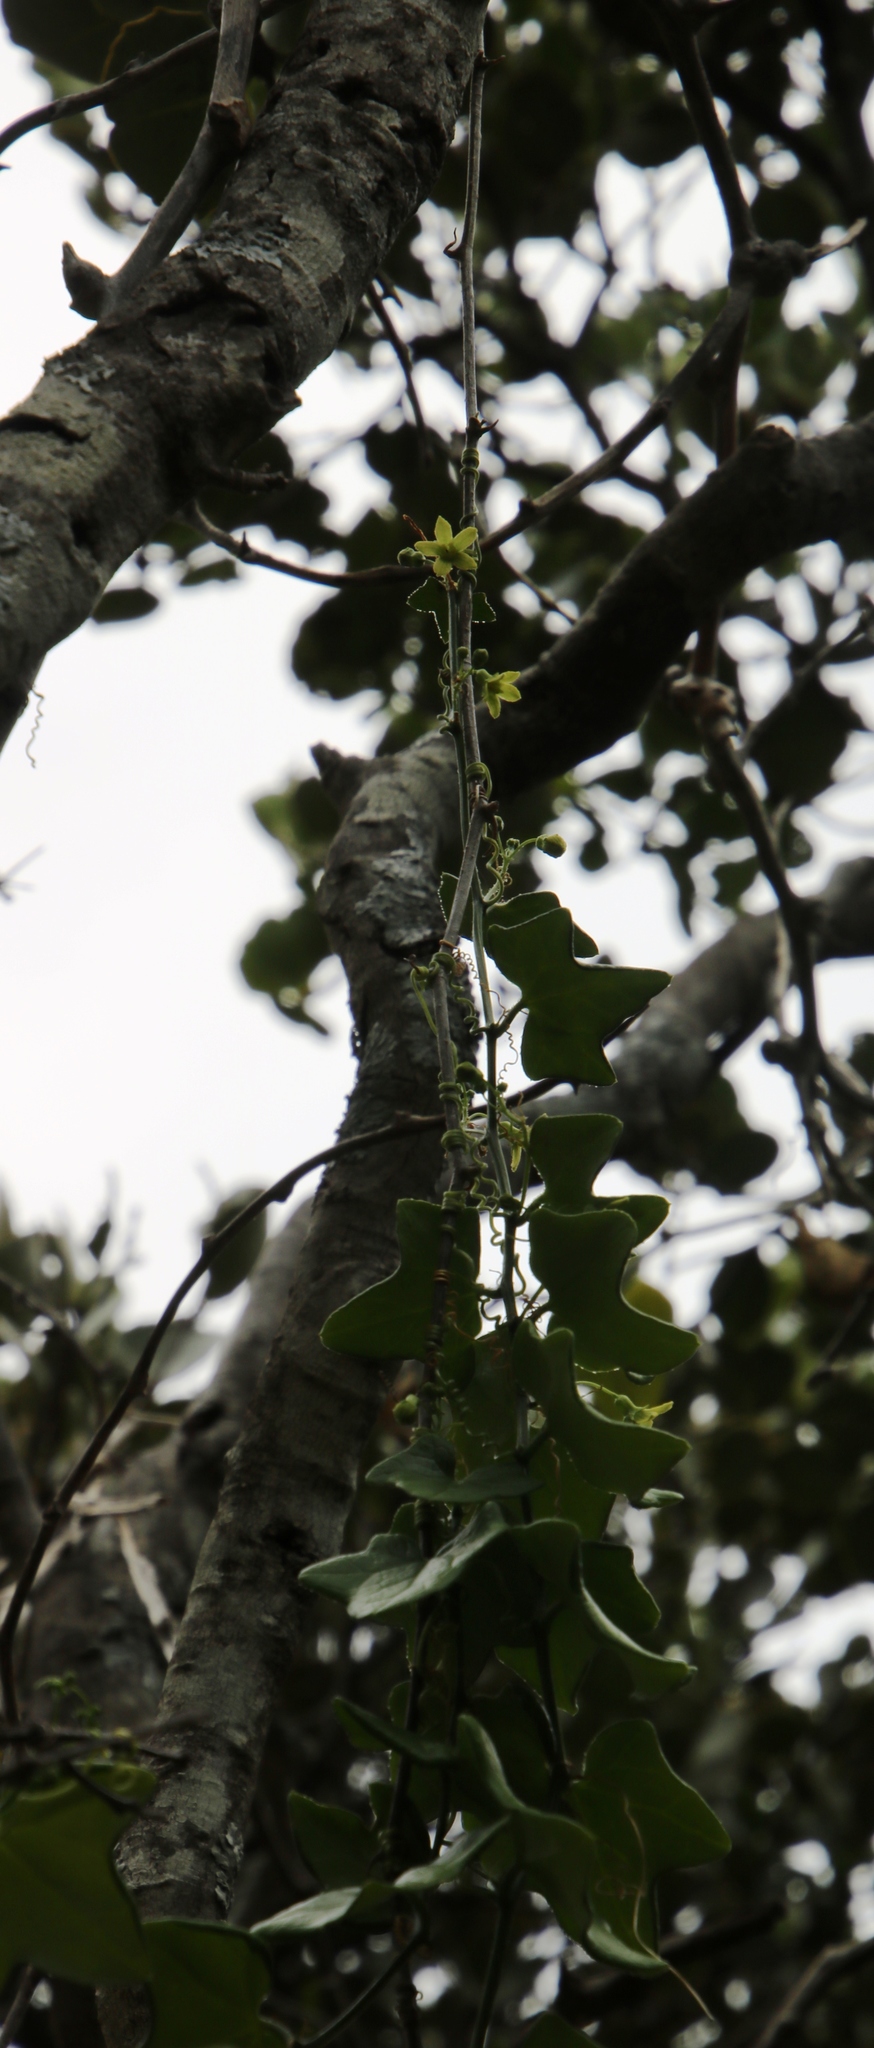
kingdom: Plantae
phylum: Tracheophyta
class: Magnoliopsida
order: Cucurbitales
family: Cucurbitaceae
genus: Kedrostis
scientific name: Kedrostis nana
